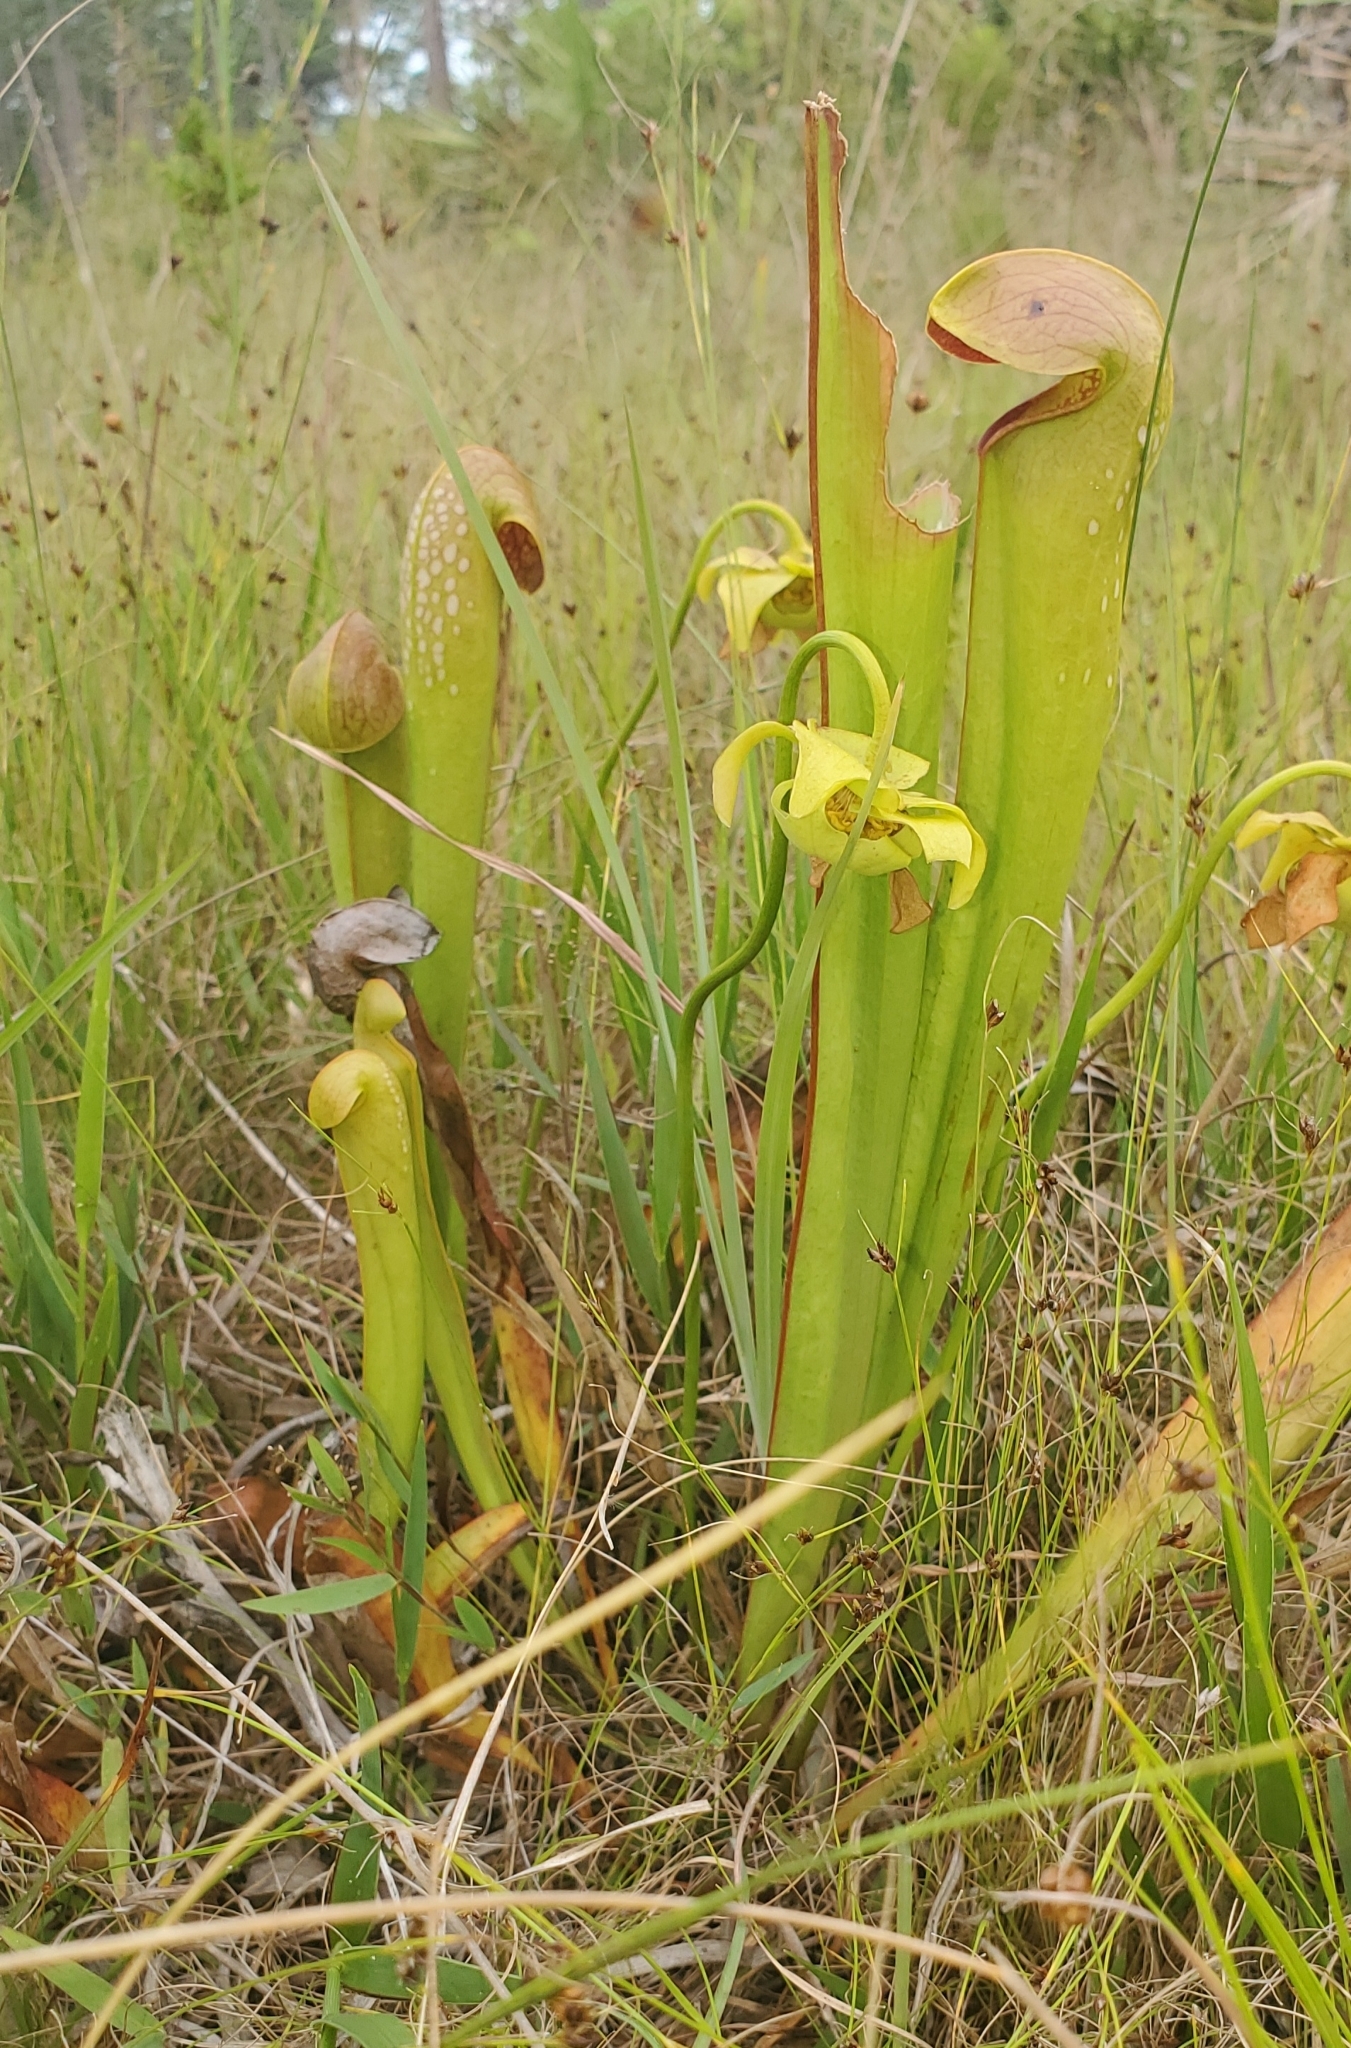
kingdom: Plantae
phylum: Tracheophyta
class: Magnoliopsida
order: Ericales
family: Sarraceniaceae
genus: Sarracenia
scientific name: Sarracenia minor
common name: Rainhat-trumpet
